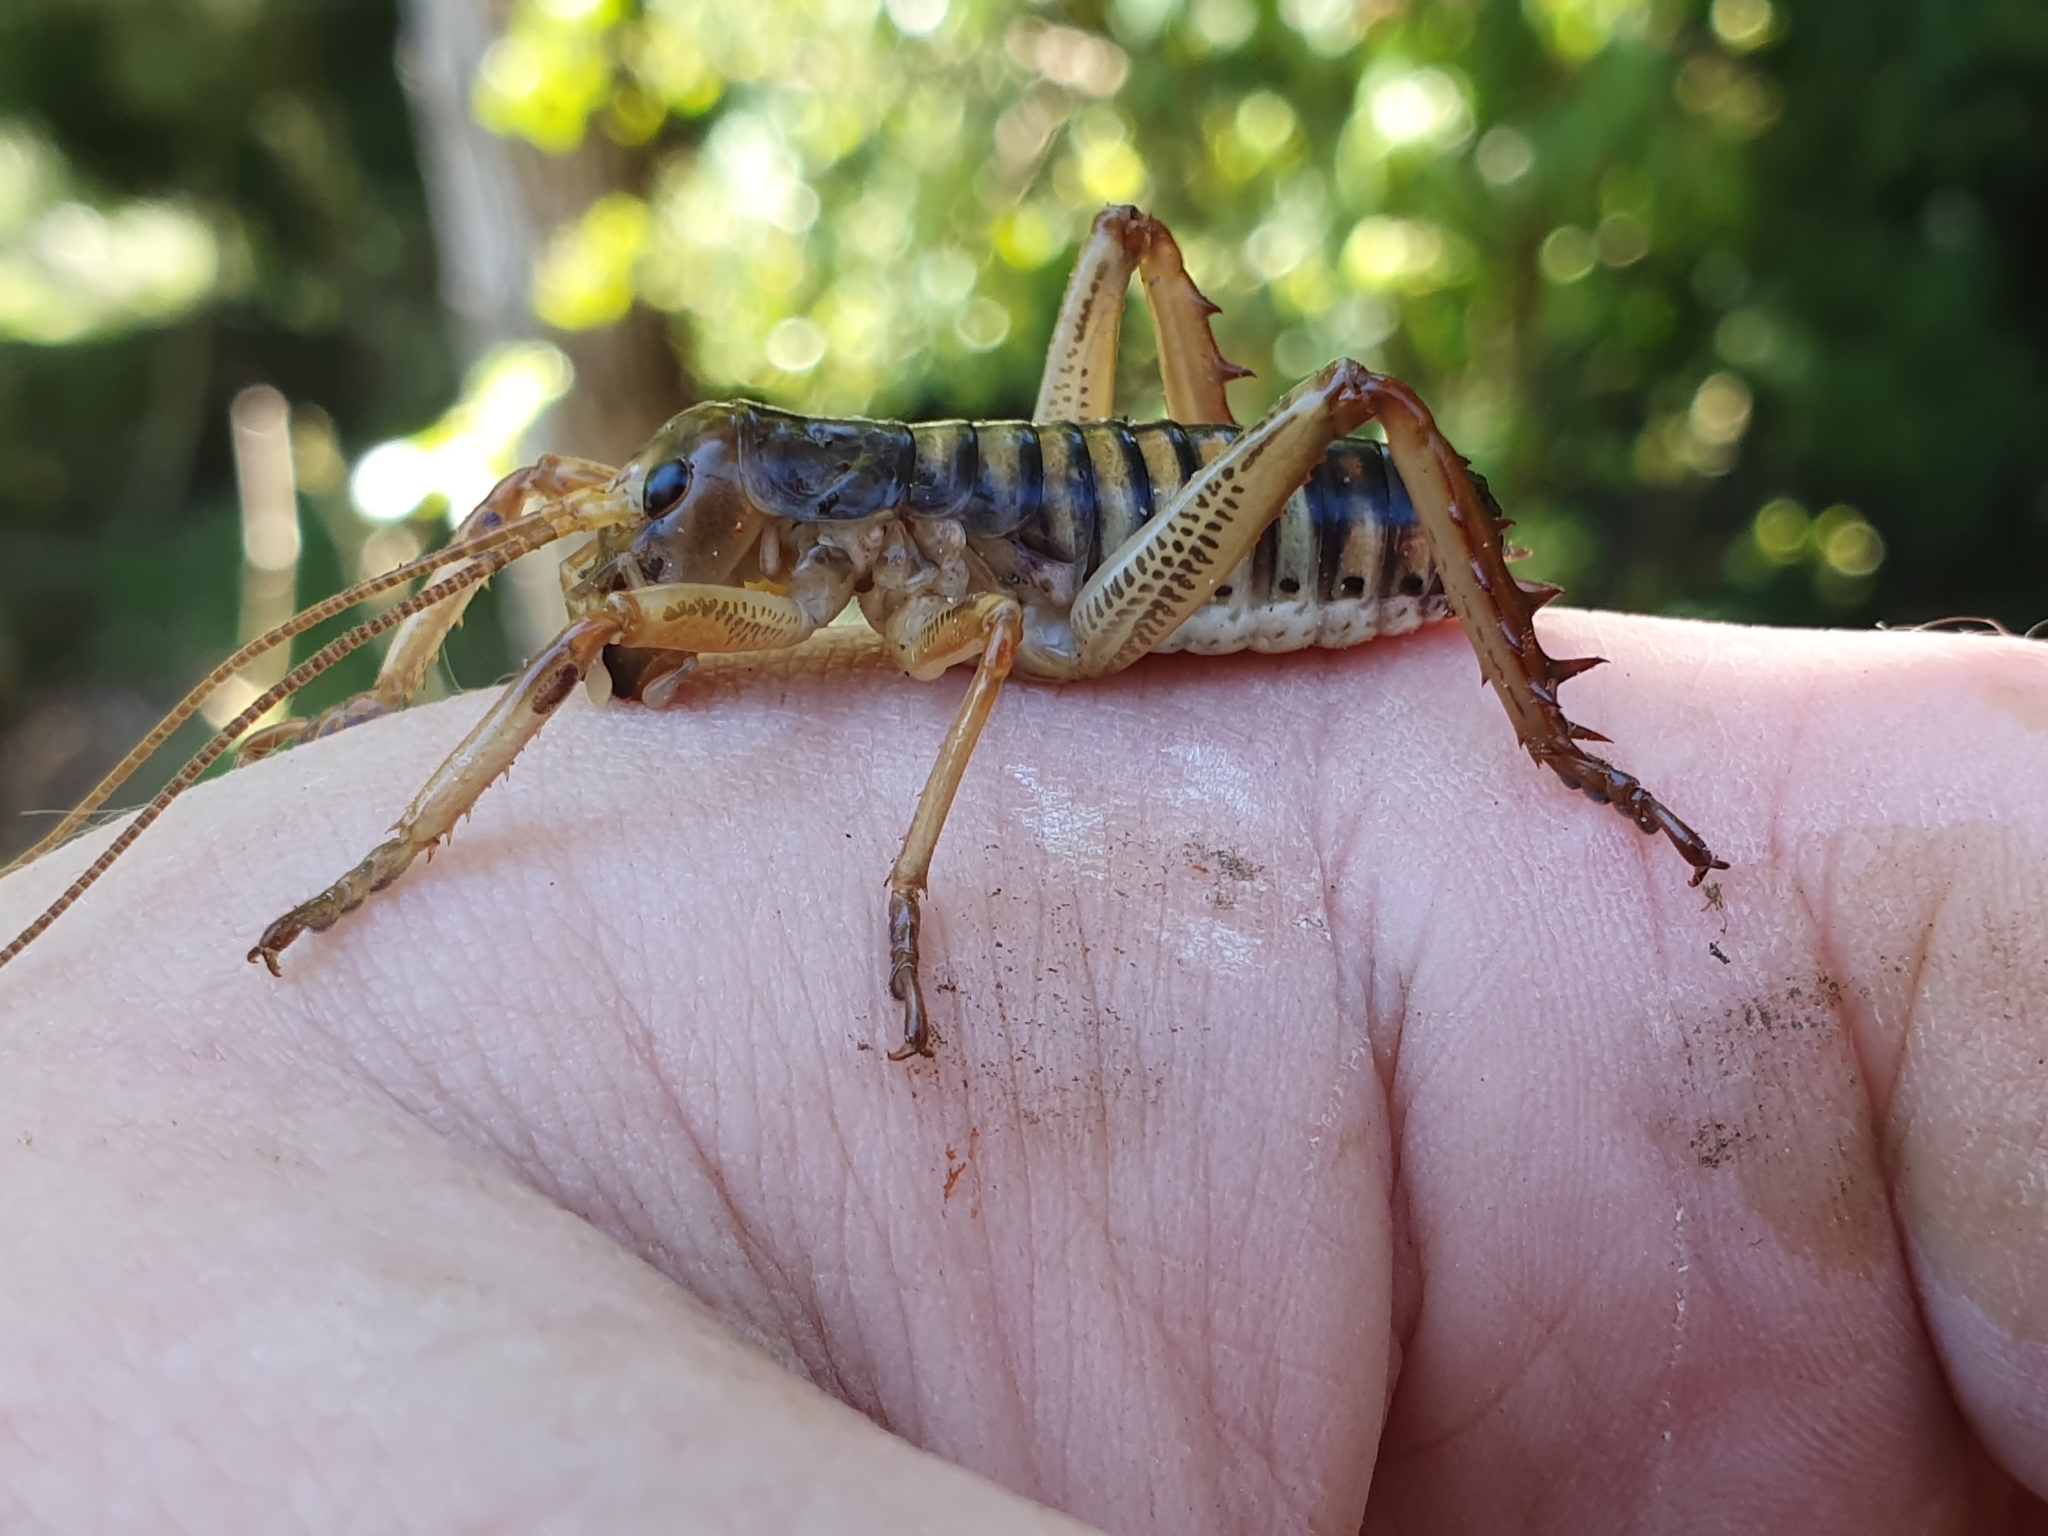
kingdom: Animalia
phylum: Arthropoda
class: Insecta
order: Orthoptera
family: Anostostomatidae
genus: Hemideina
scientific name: Hemideina crassidens
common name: Wellington tree weta
